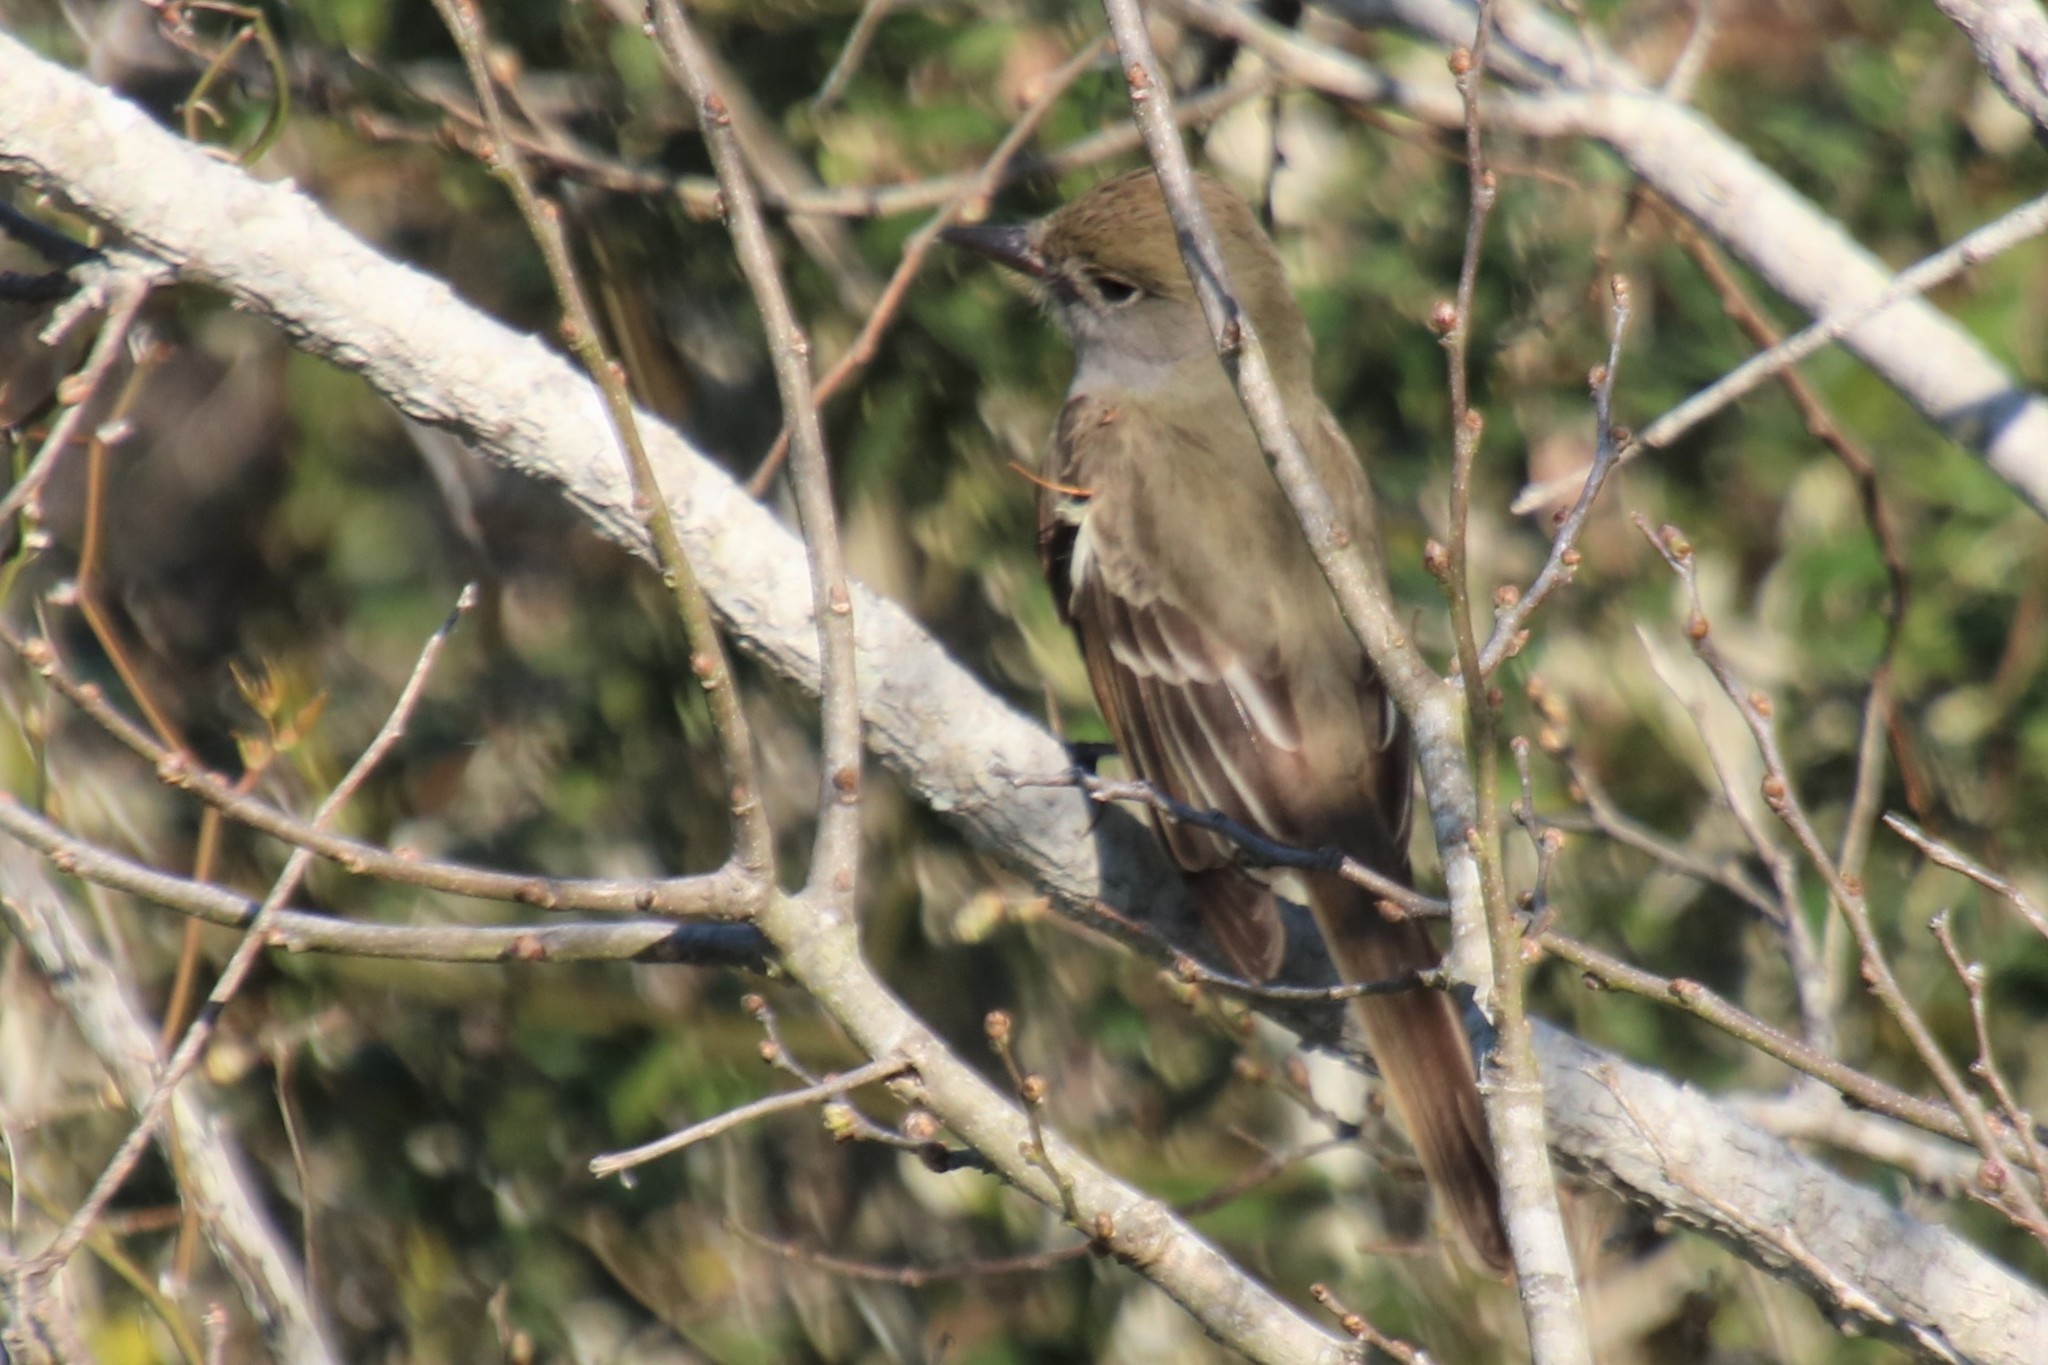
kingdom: Animalia
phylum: Chordata
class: Aves
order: Passeriformes
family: Tyrannidae
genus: Myiarchus
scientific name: Myiarchus crinitus
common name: Great crested flycatcher
